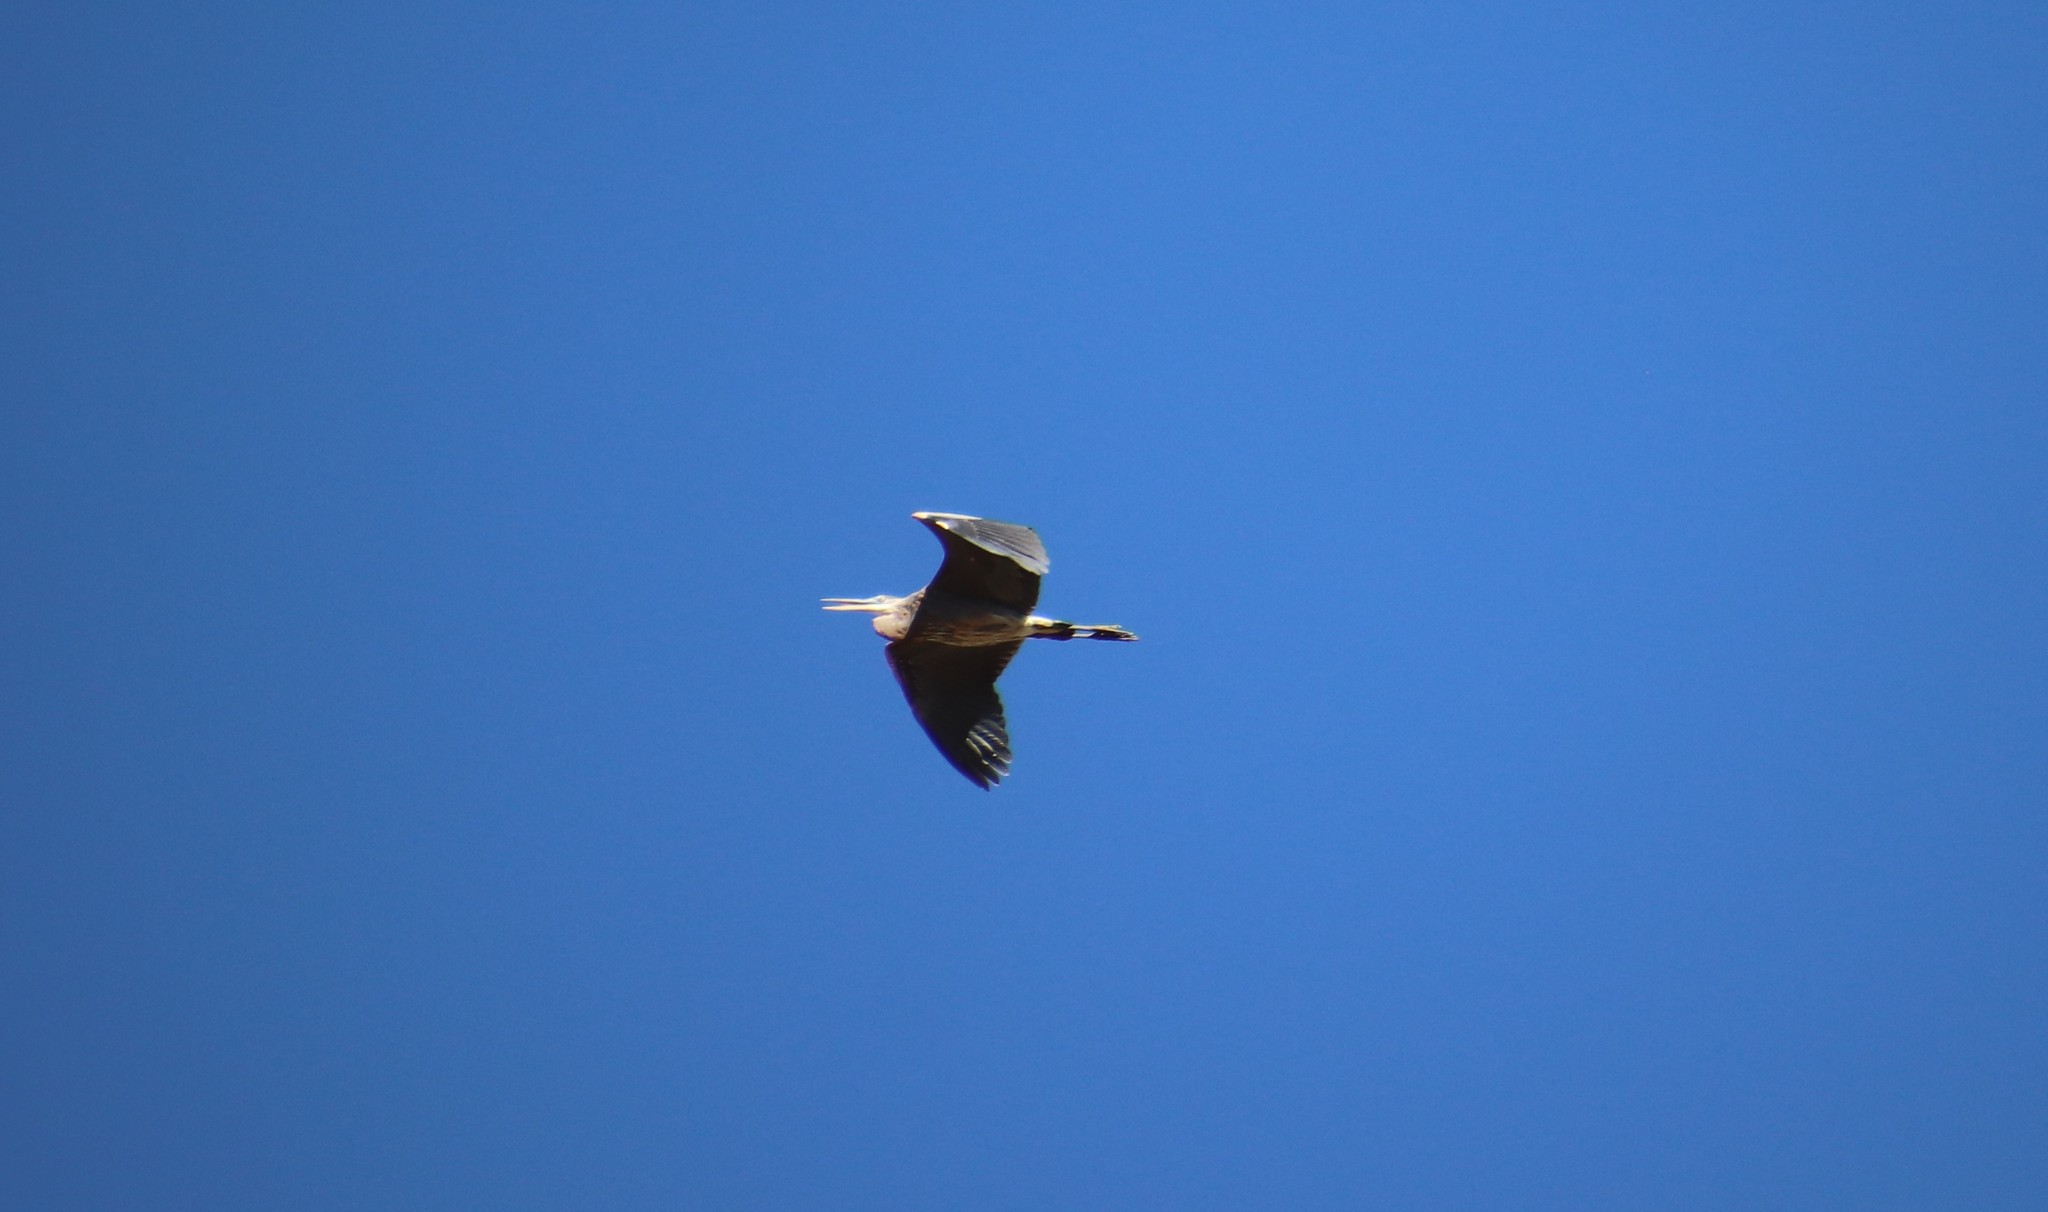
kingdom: Animalia
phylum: Chordata
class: Aves
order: Pelecaniformes
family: Ardeidae
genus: Ardea
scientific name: Ardea herodias
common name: Great blue heron
